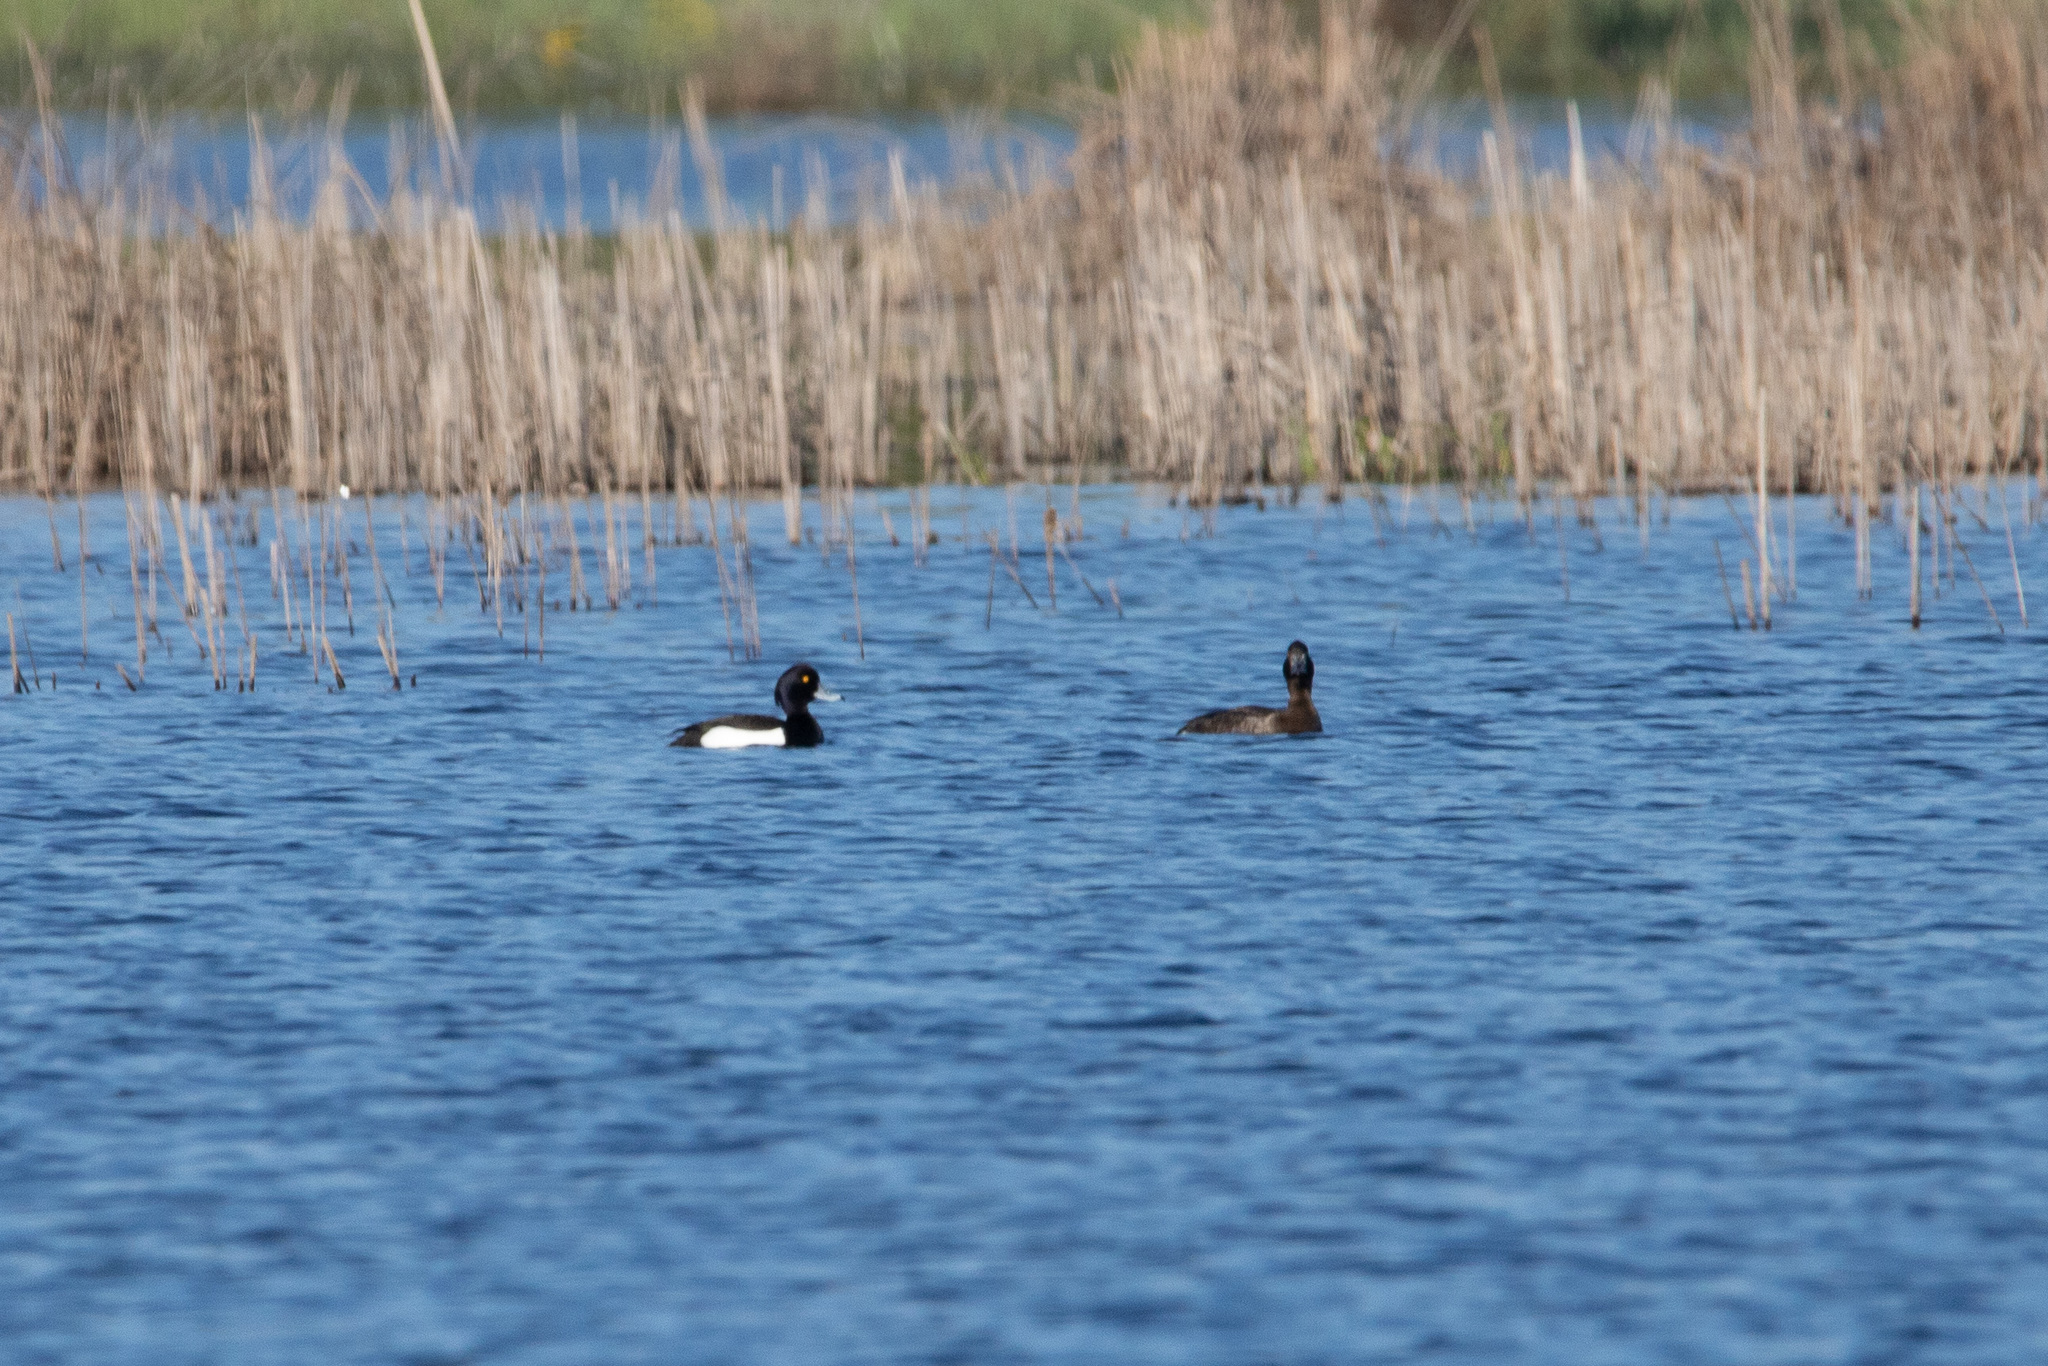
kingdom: Animalia
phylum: Chordata
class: Aves
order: Anseriformes
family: Anatidae
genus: Aythya
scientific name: Aythya fuligula
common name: Tufted duck
